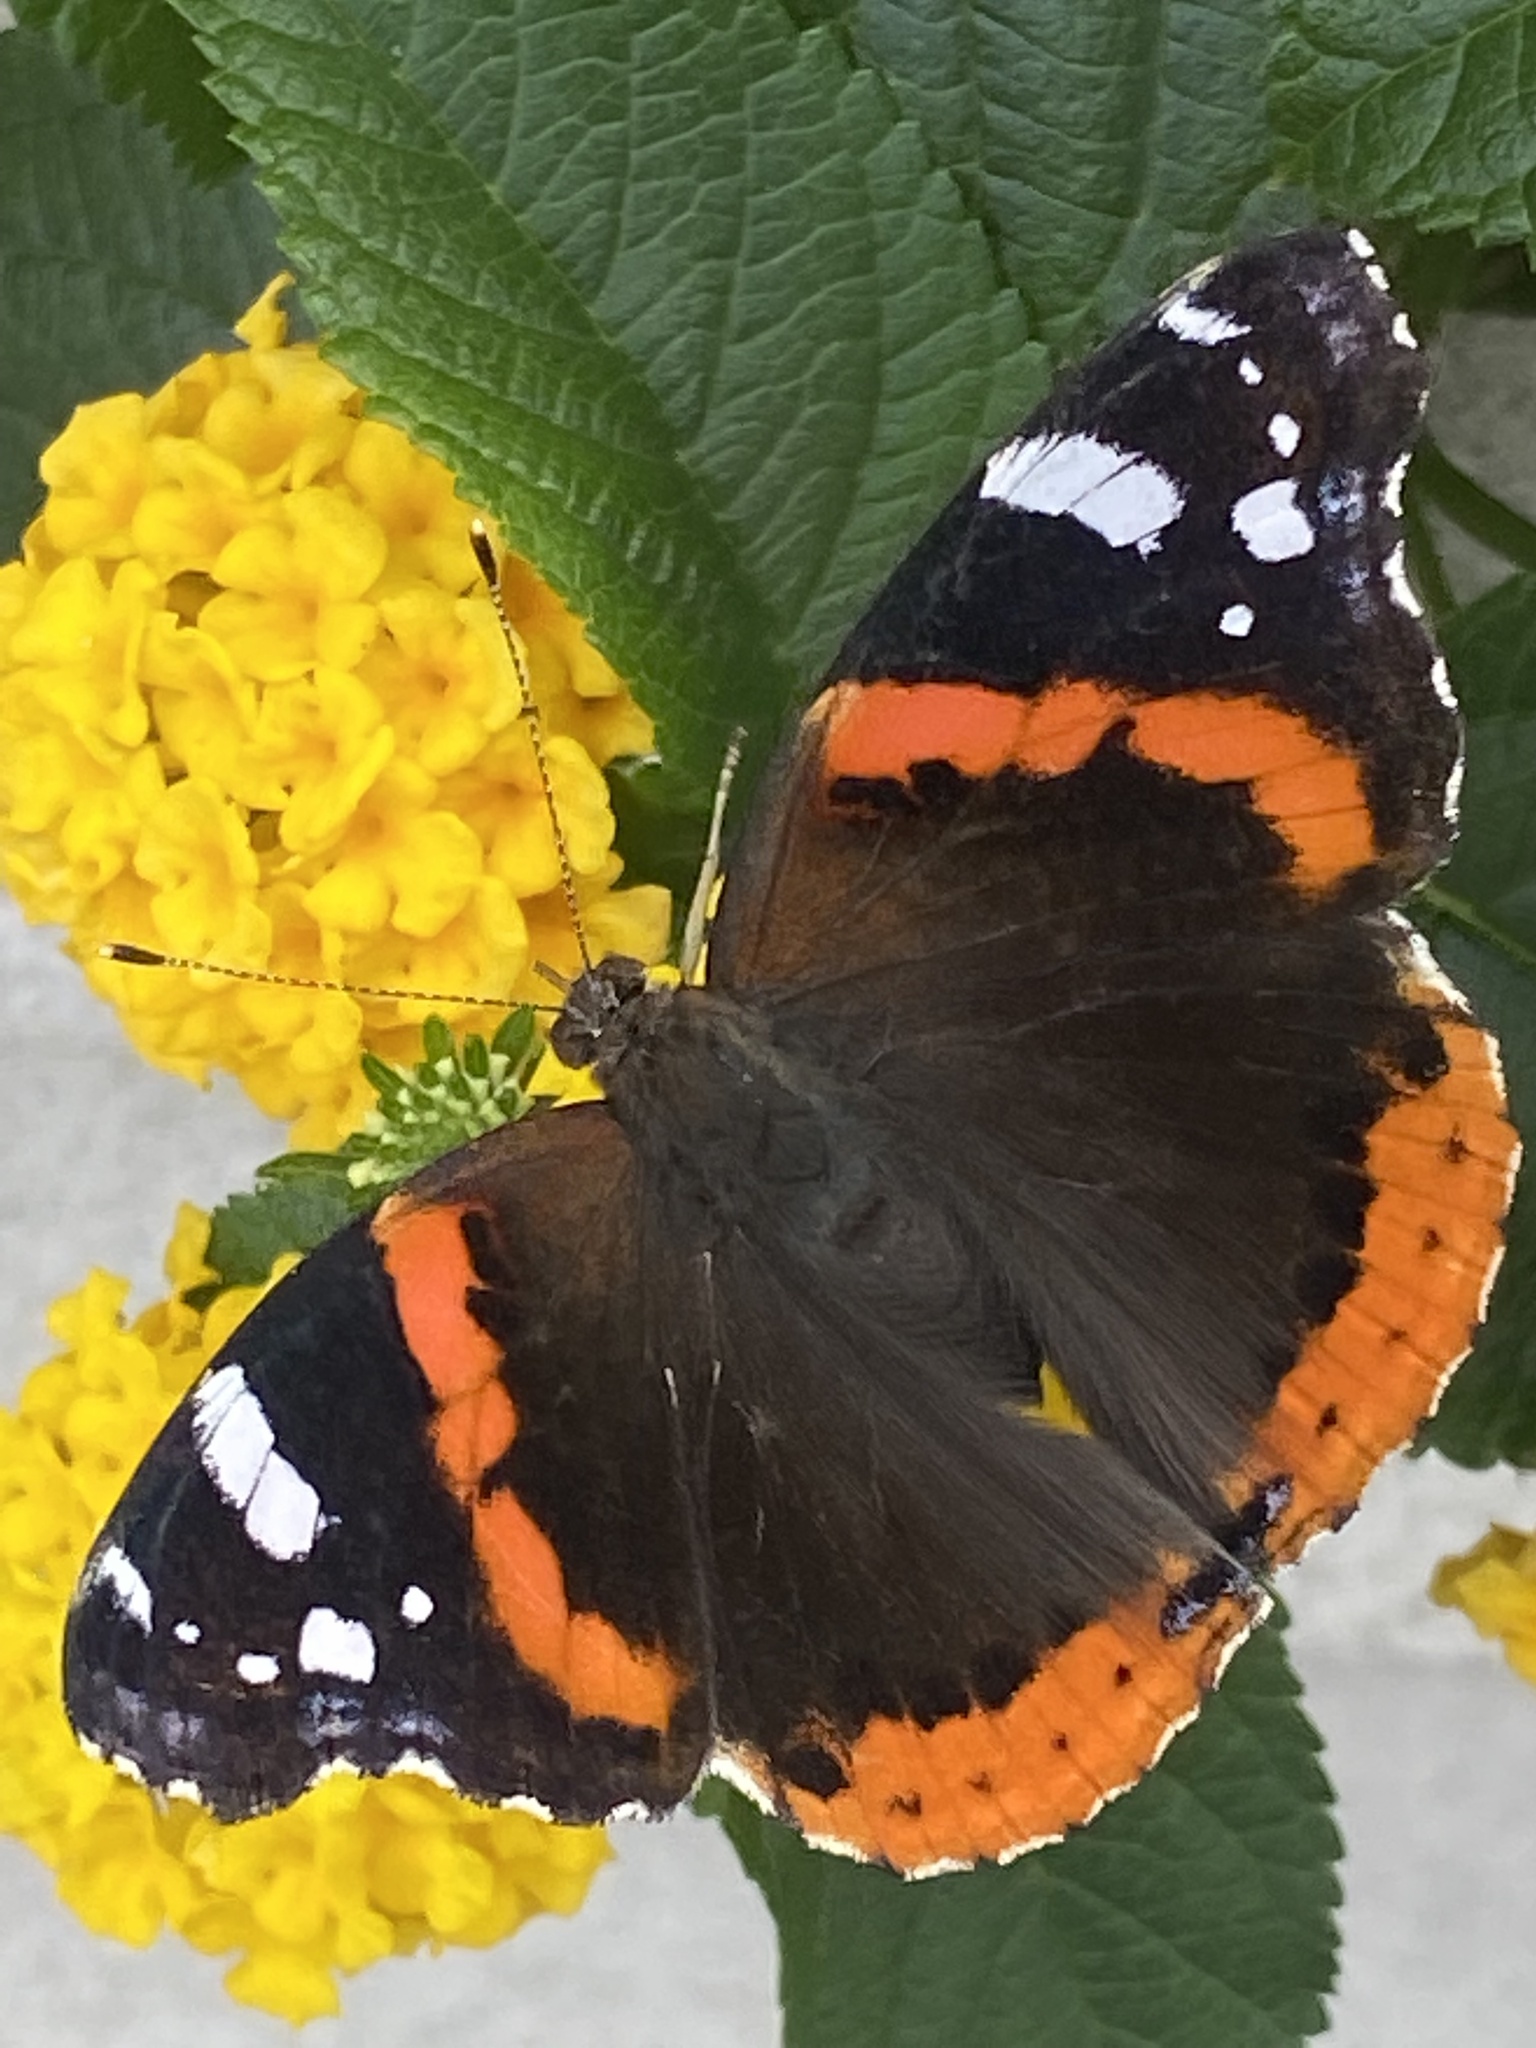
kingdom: Animalia
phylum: Arthropoda
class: Insecta
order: Lepidoptera
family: Nymphalidae
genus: Vanessa
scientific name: Vanessa atalanta
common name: Red admiral
